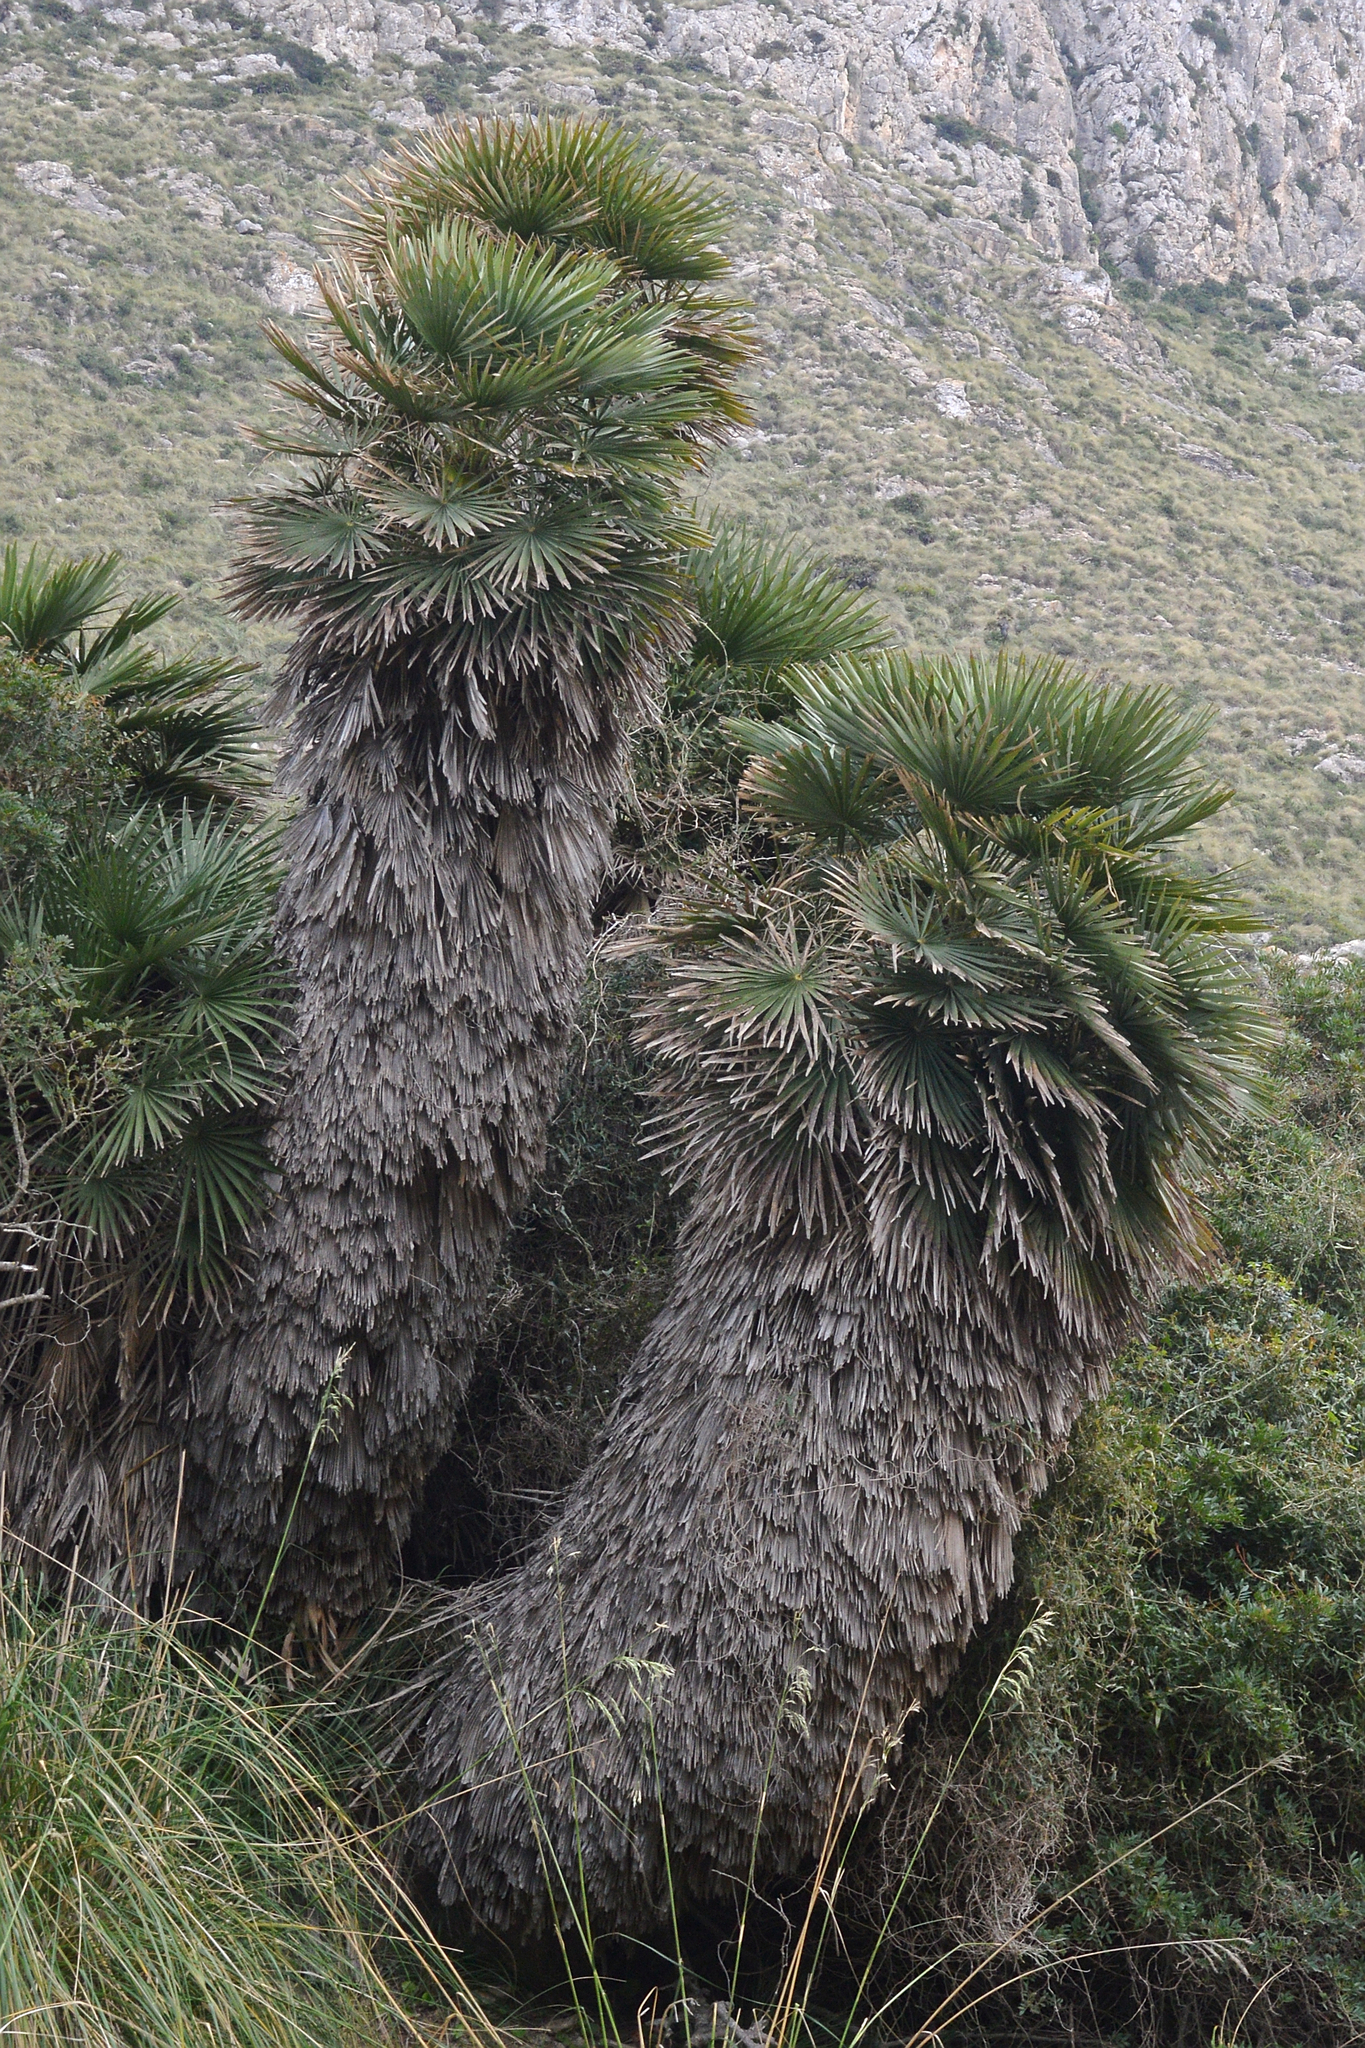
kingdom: Plantae
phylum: Tracheophyta
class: Liliopsida
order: Arecales
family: Arecaceae
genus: Chamaerops
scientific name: Chamaerops humilis
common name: Dwarf fan palm
